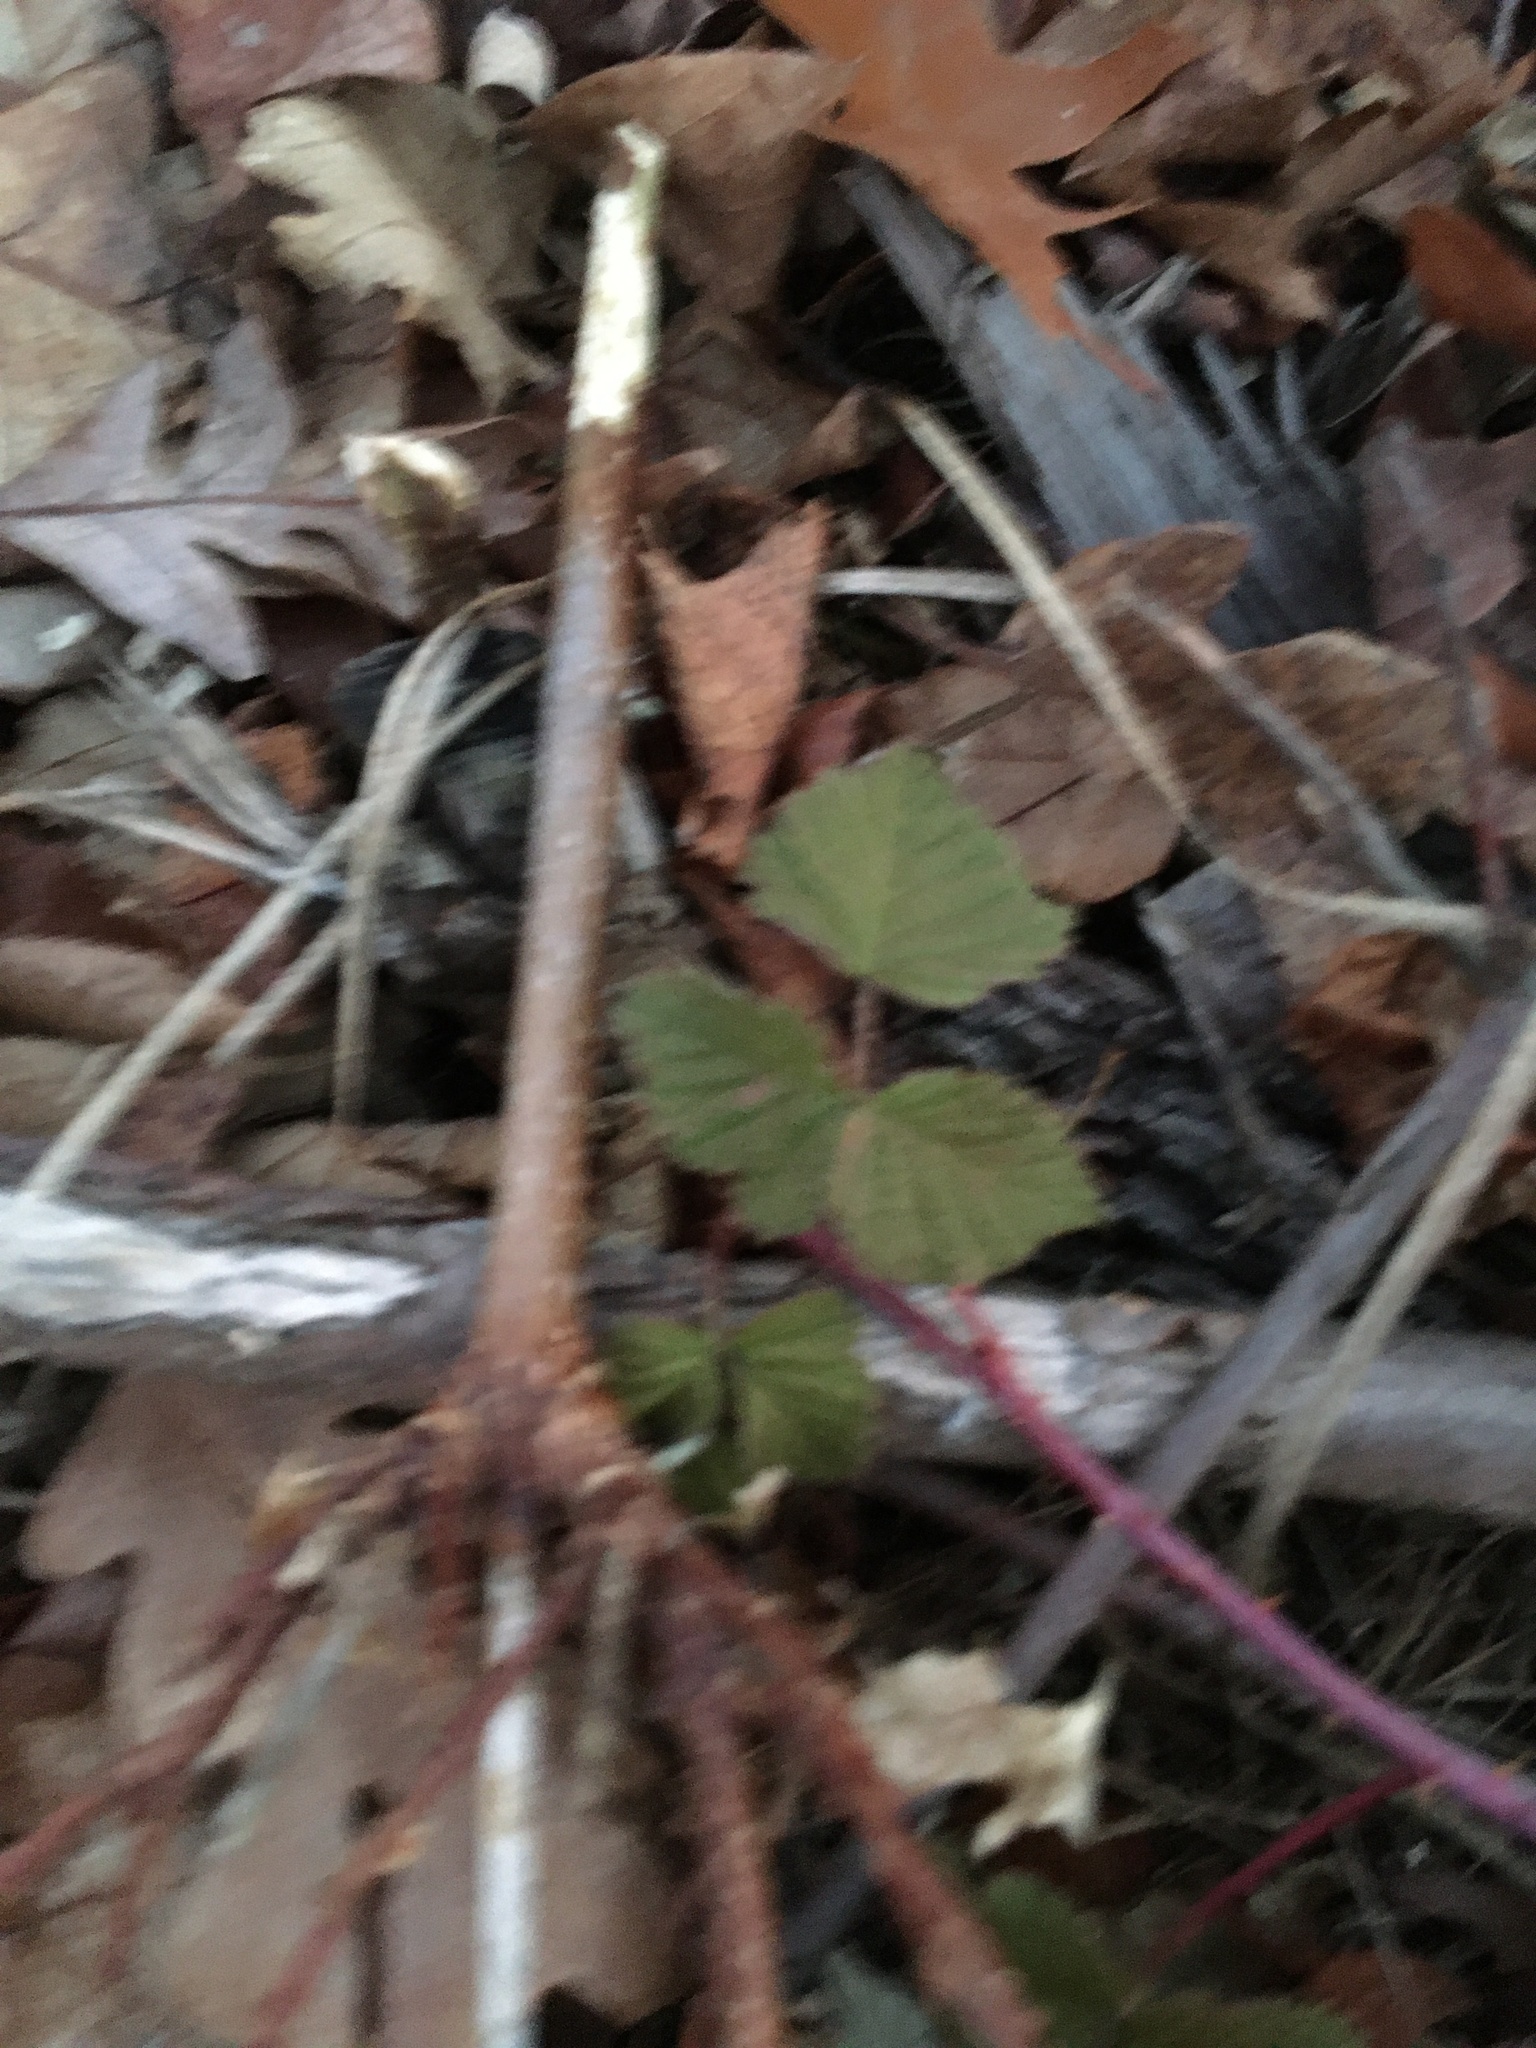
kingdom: Plantae
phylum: Tracheophyta
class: Magnoliopsida
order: Rosales
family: Rosaceae
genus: Rubus
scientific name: Rubus occidentalis
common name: Black raspberry
